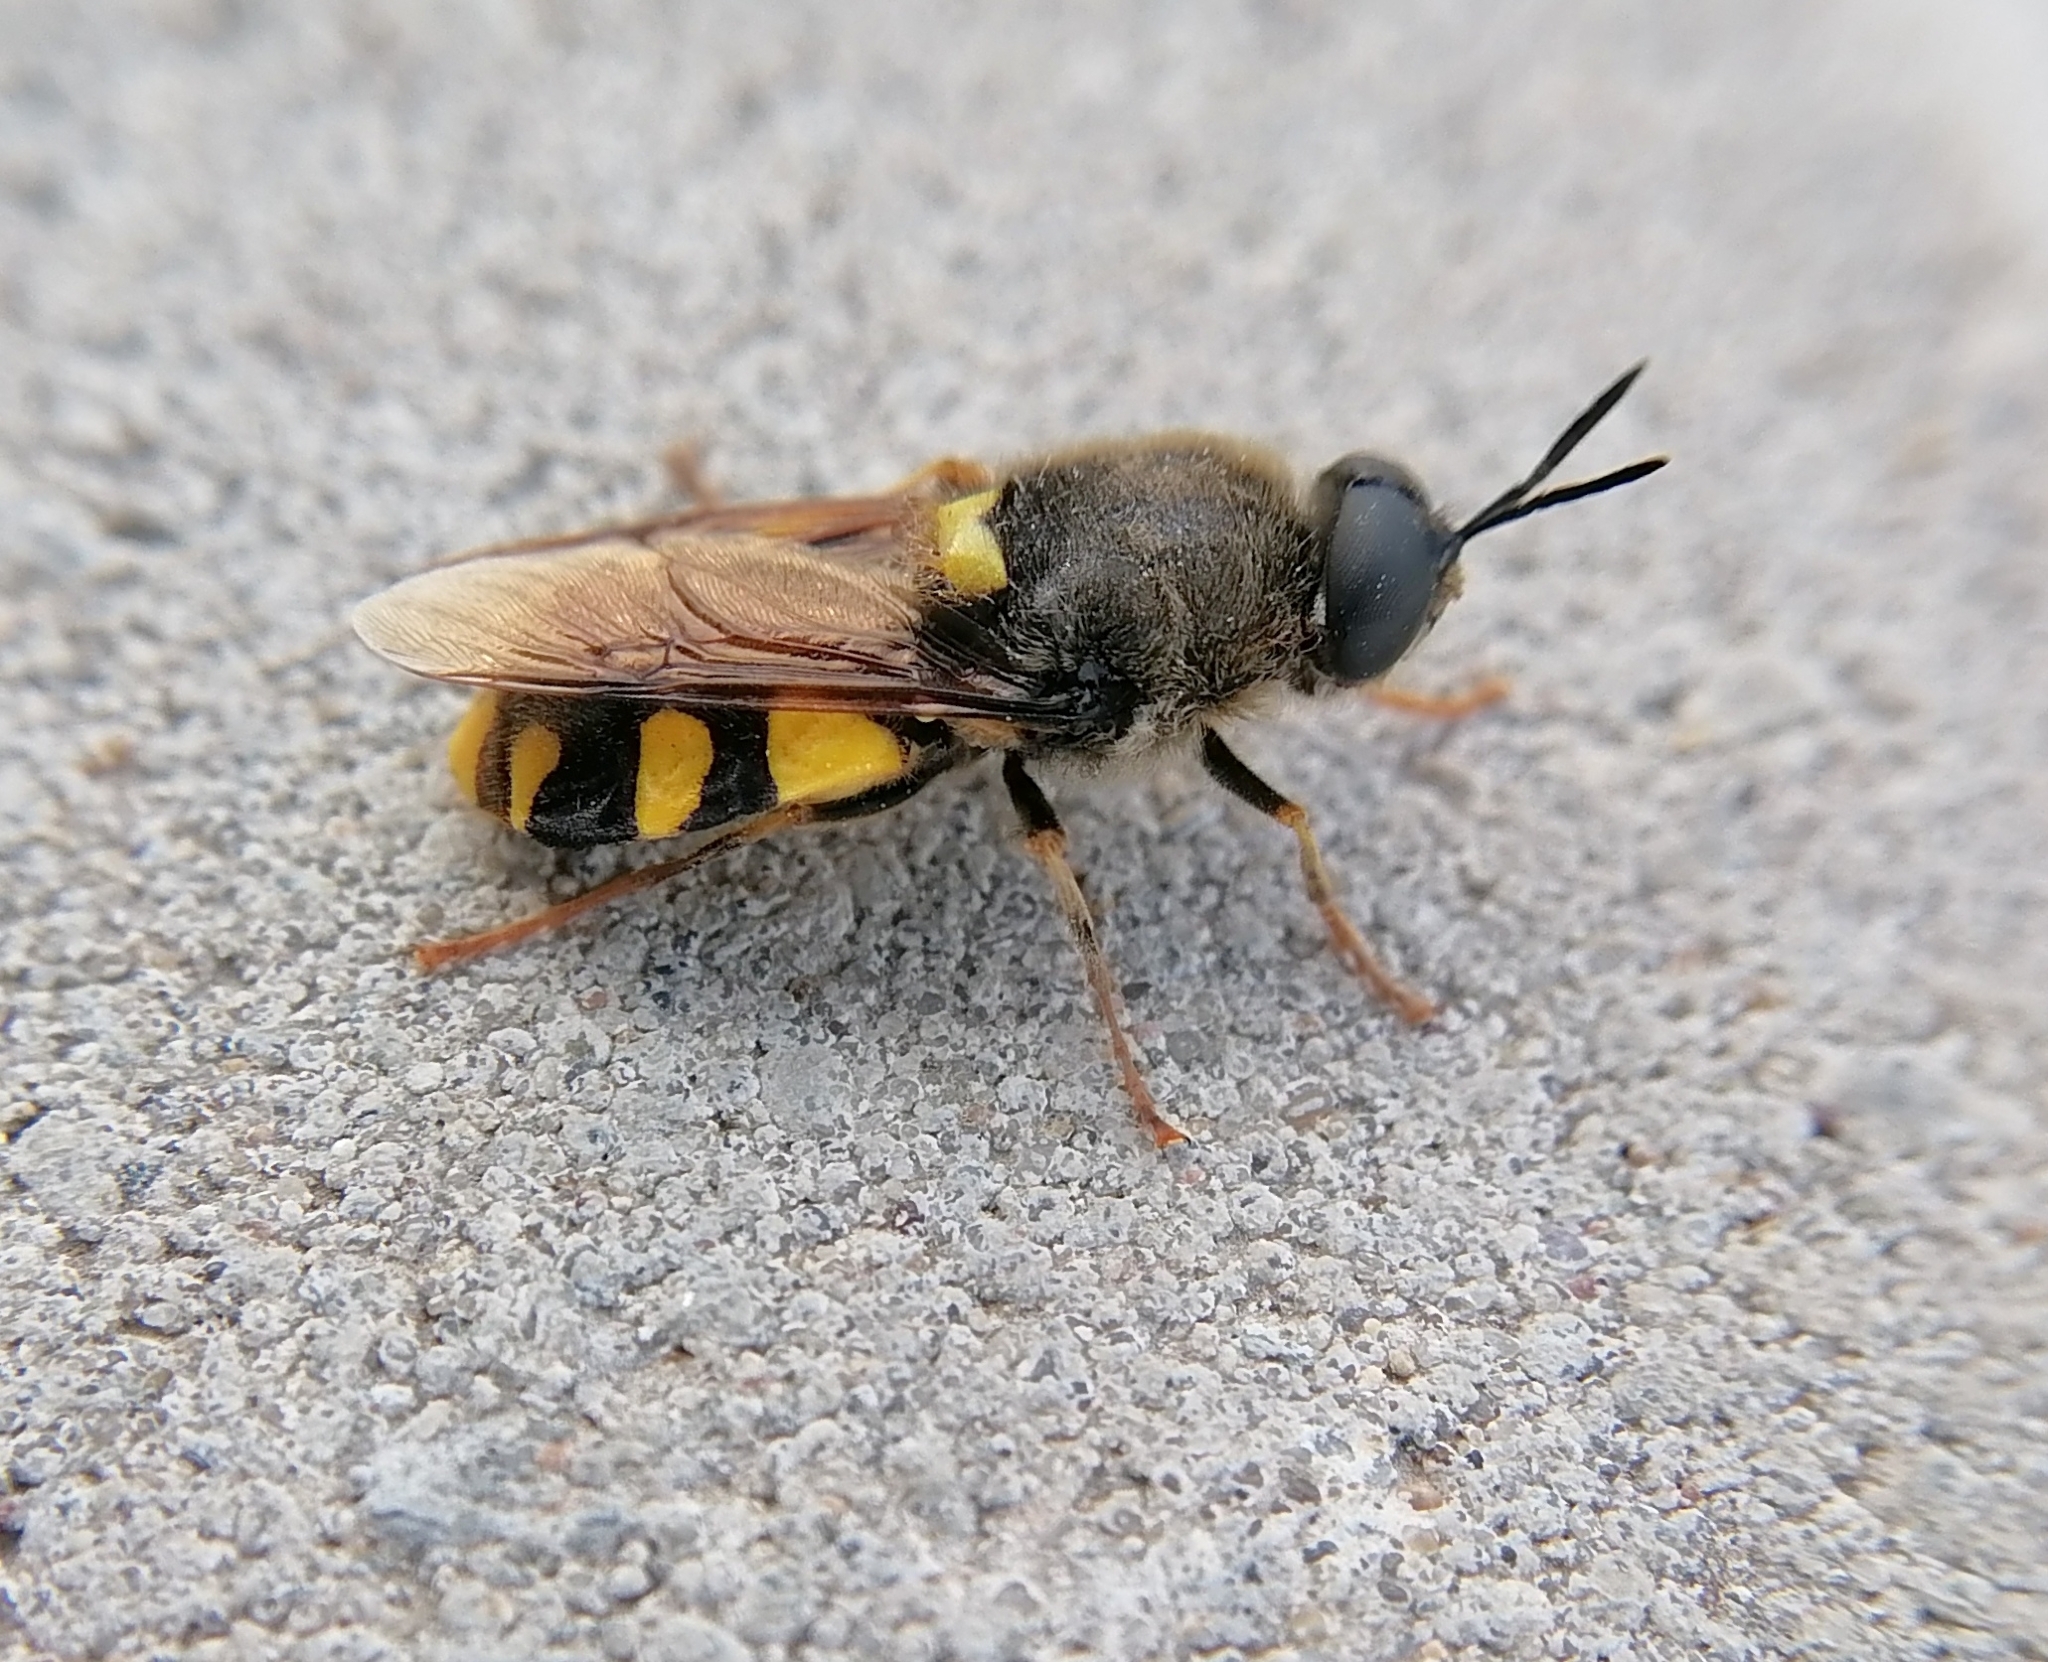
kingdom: Animalia
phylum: Arthropoda
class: Insecta
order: Diptera
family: Stratiomyidae
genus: Stratiomys
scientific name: Stratiomys chamaeleon
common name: Clubbed general
